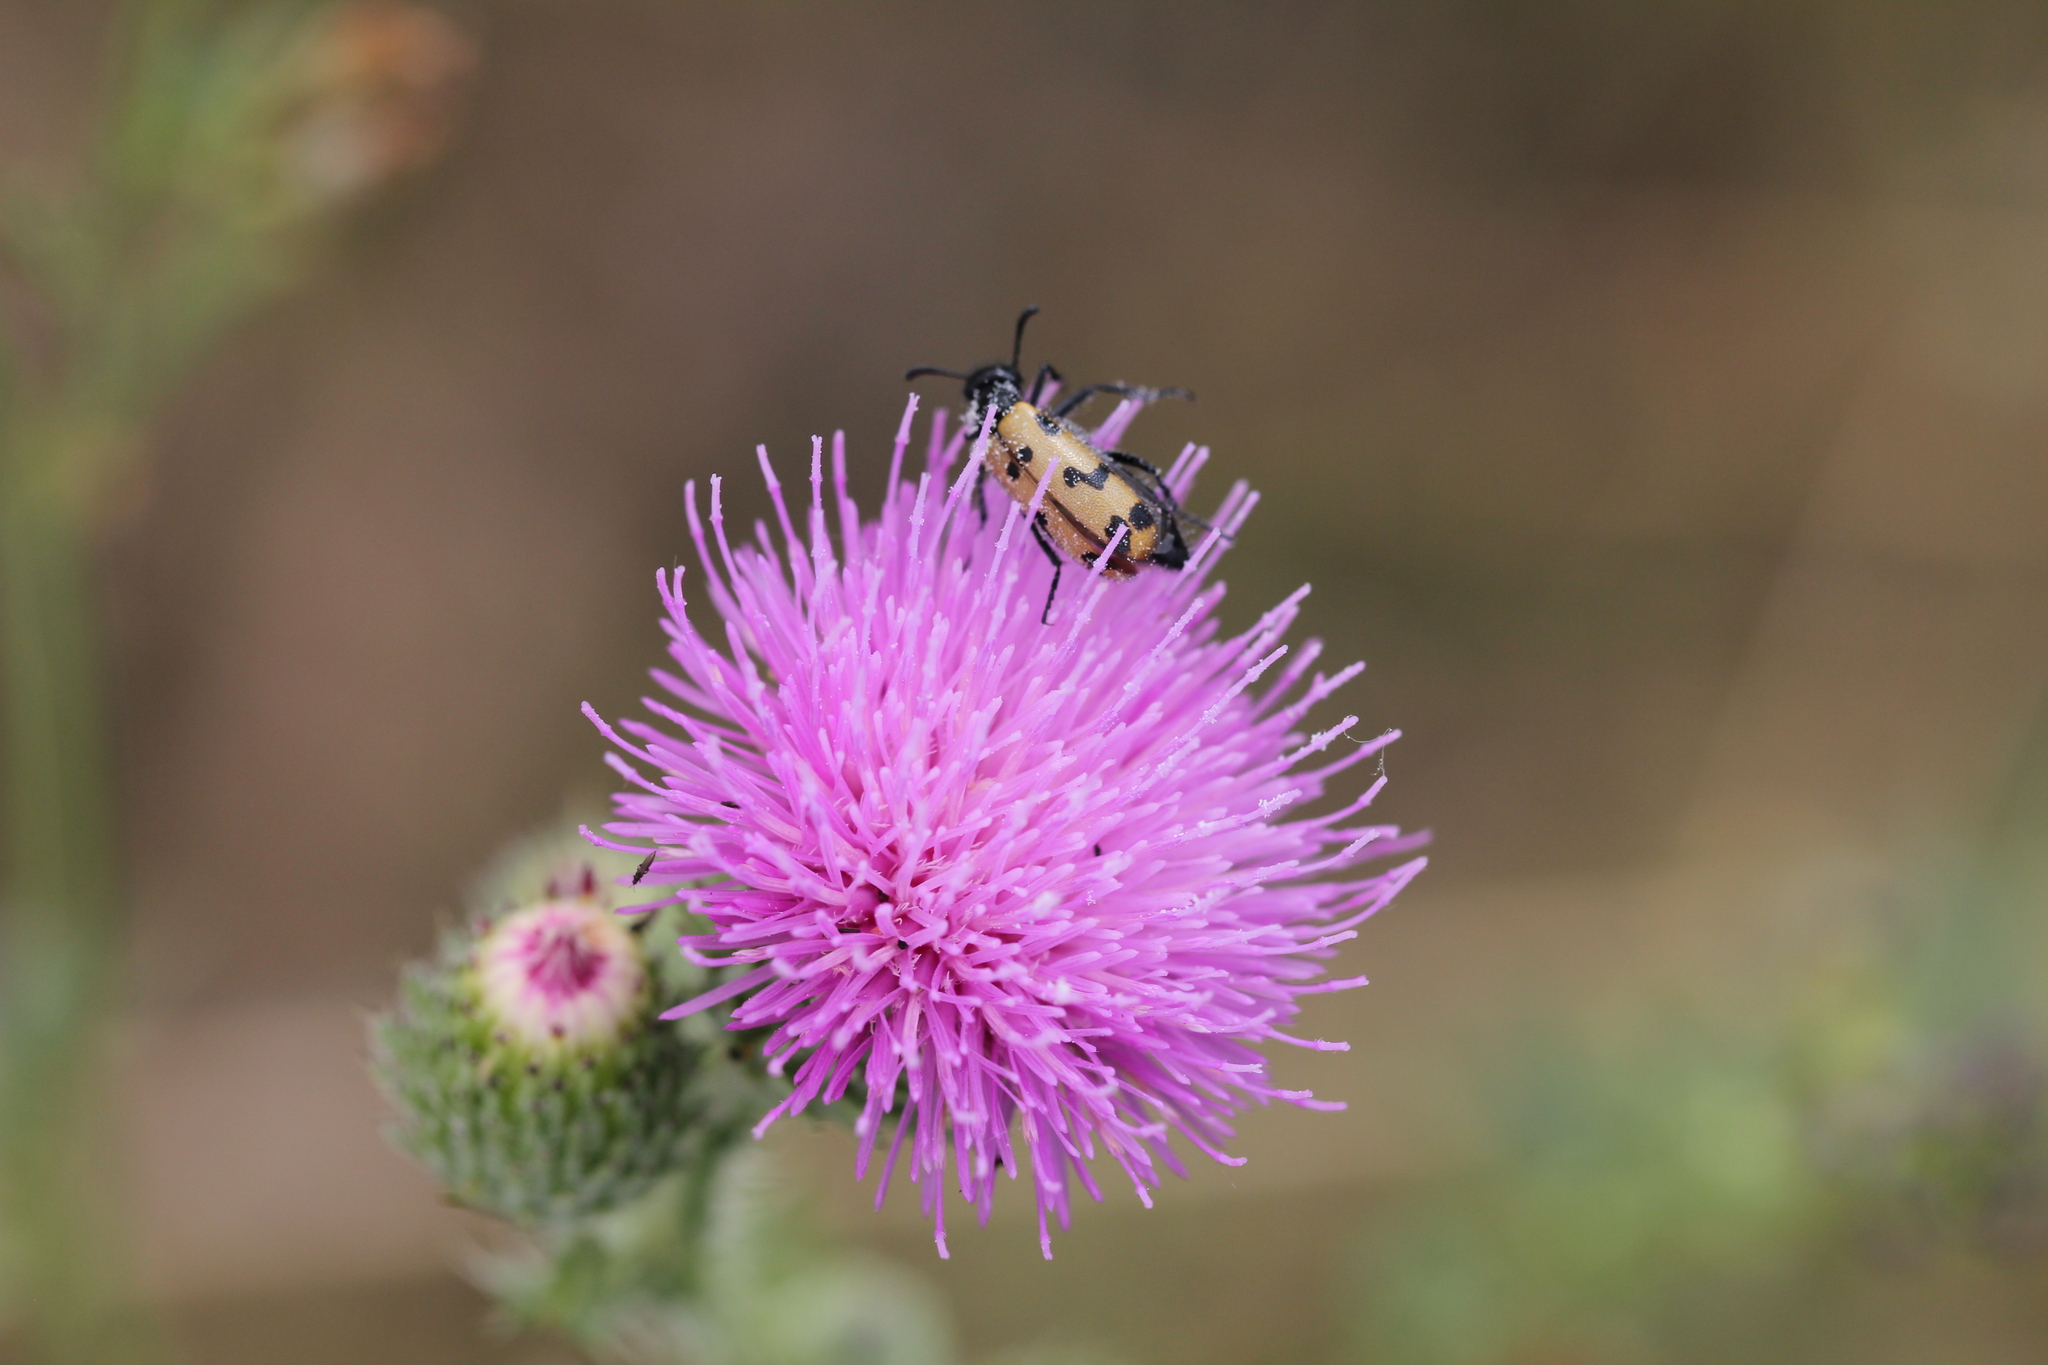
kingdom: Animalia
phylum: Arthropoda
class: Insecta
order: Coleoptera
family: Meloidae
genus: Mylabris
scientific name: Mylabris geminata
